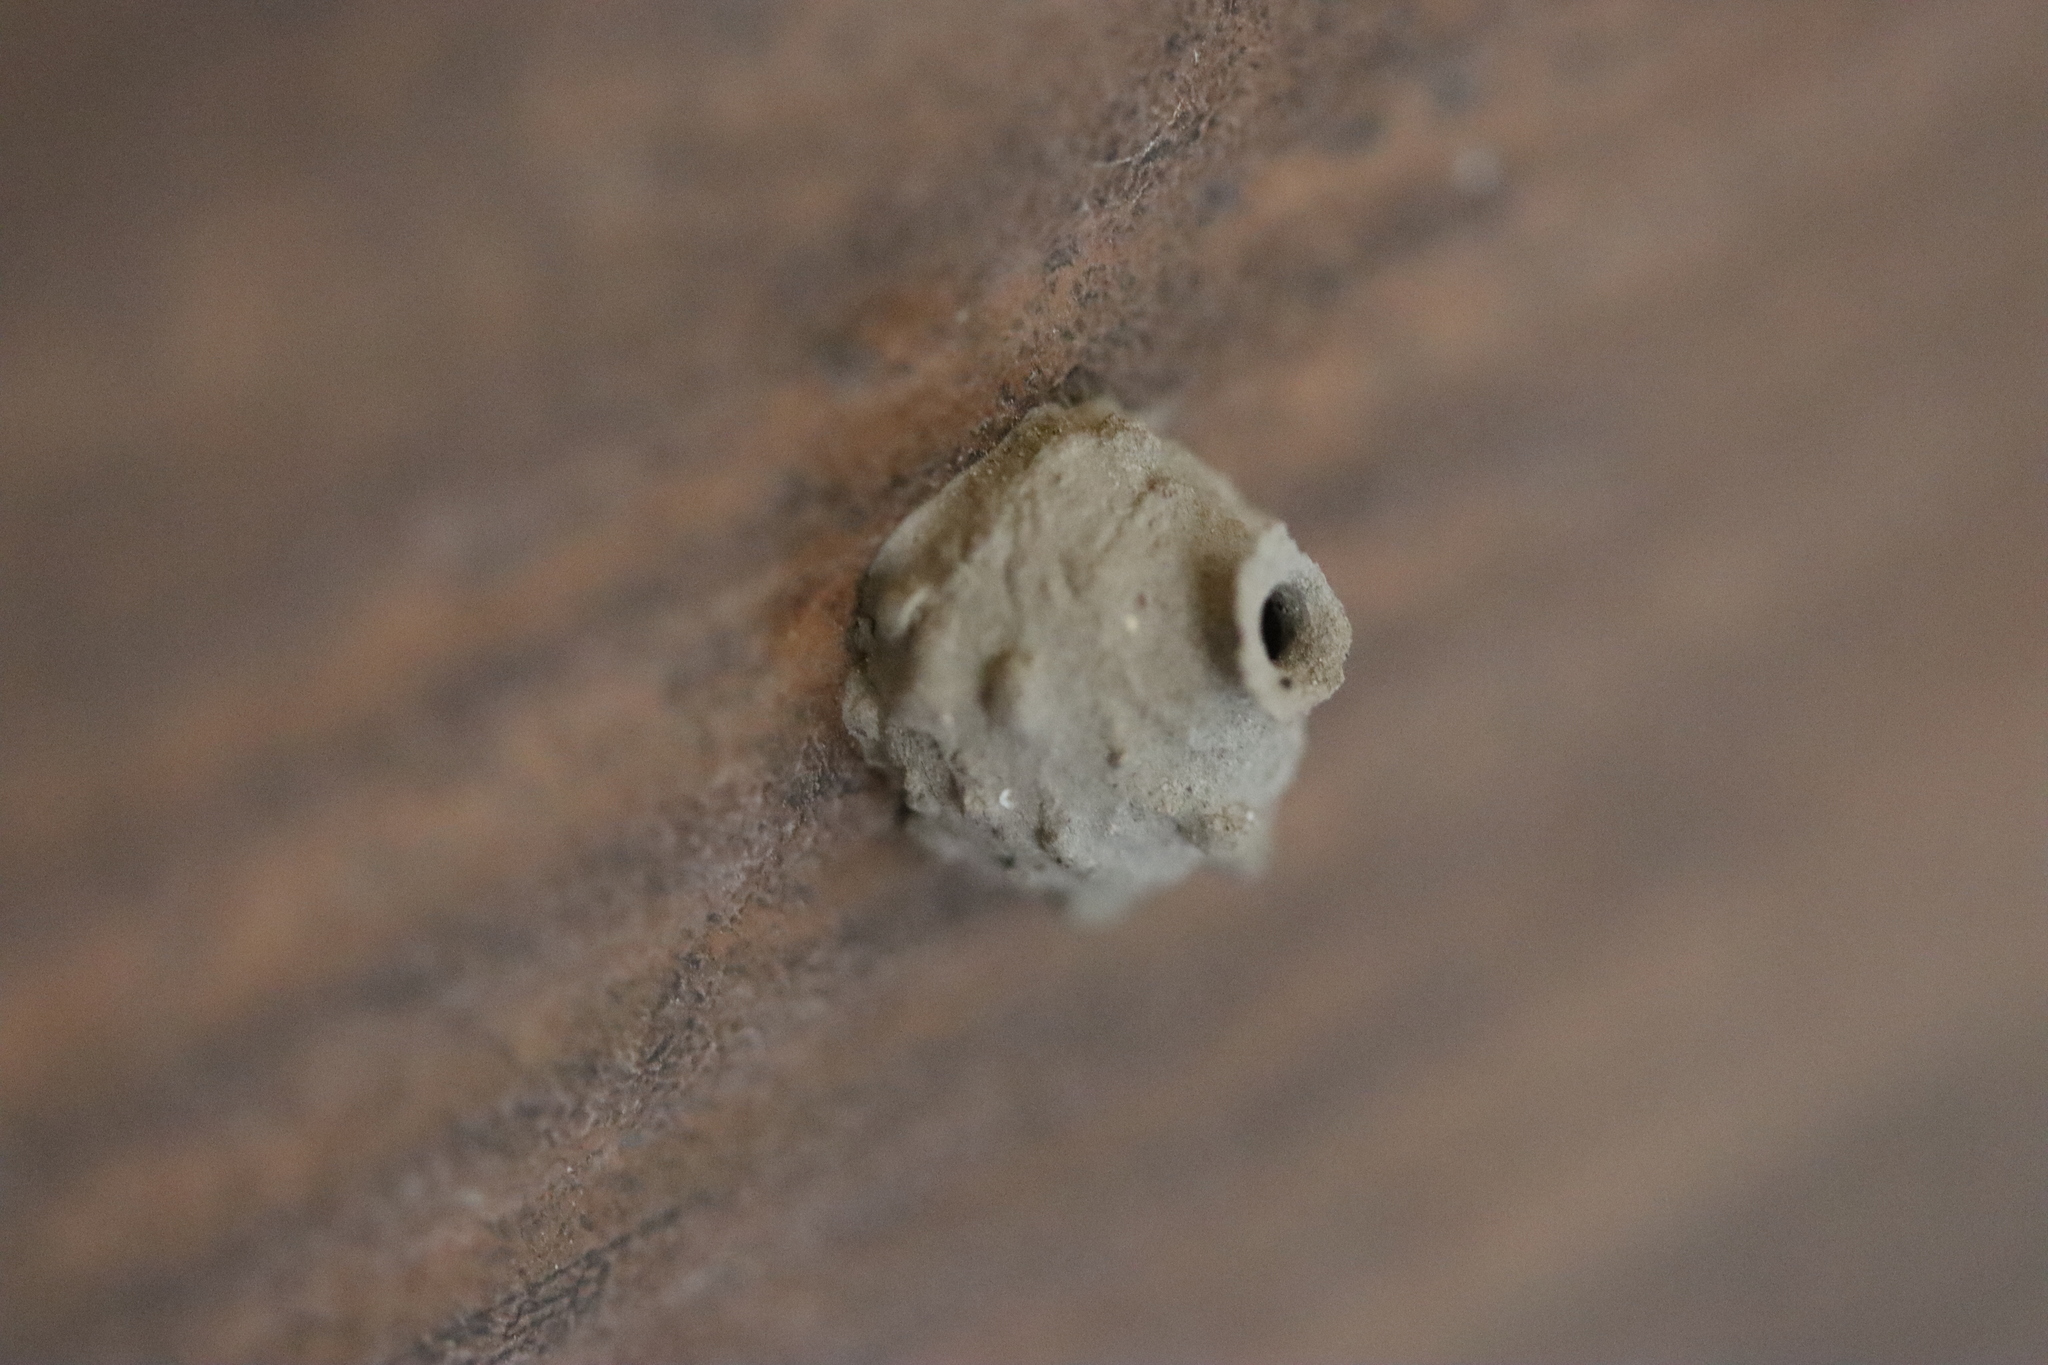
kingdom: Animalia
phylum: Arthropoda
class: Insecta
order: Hymenoptera
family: Eumenidae
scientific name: Eumenidae
